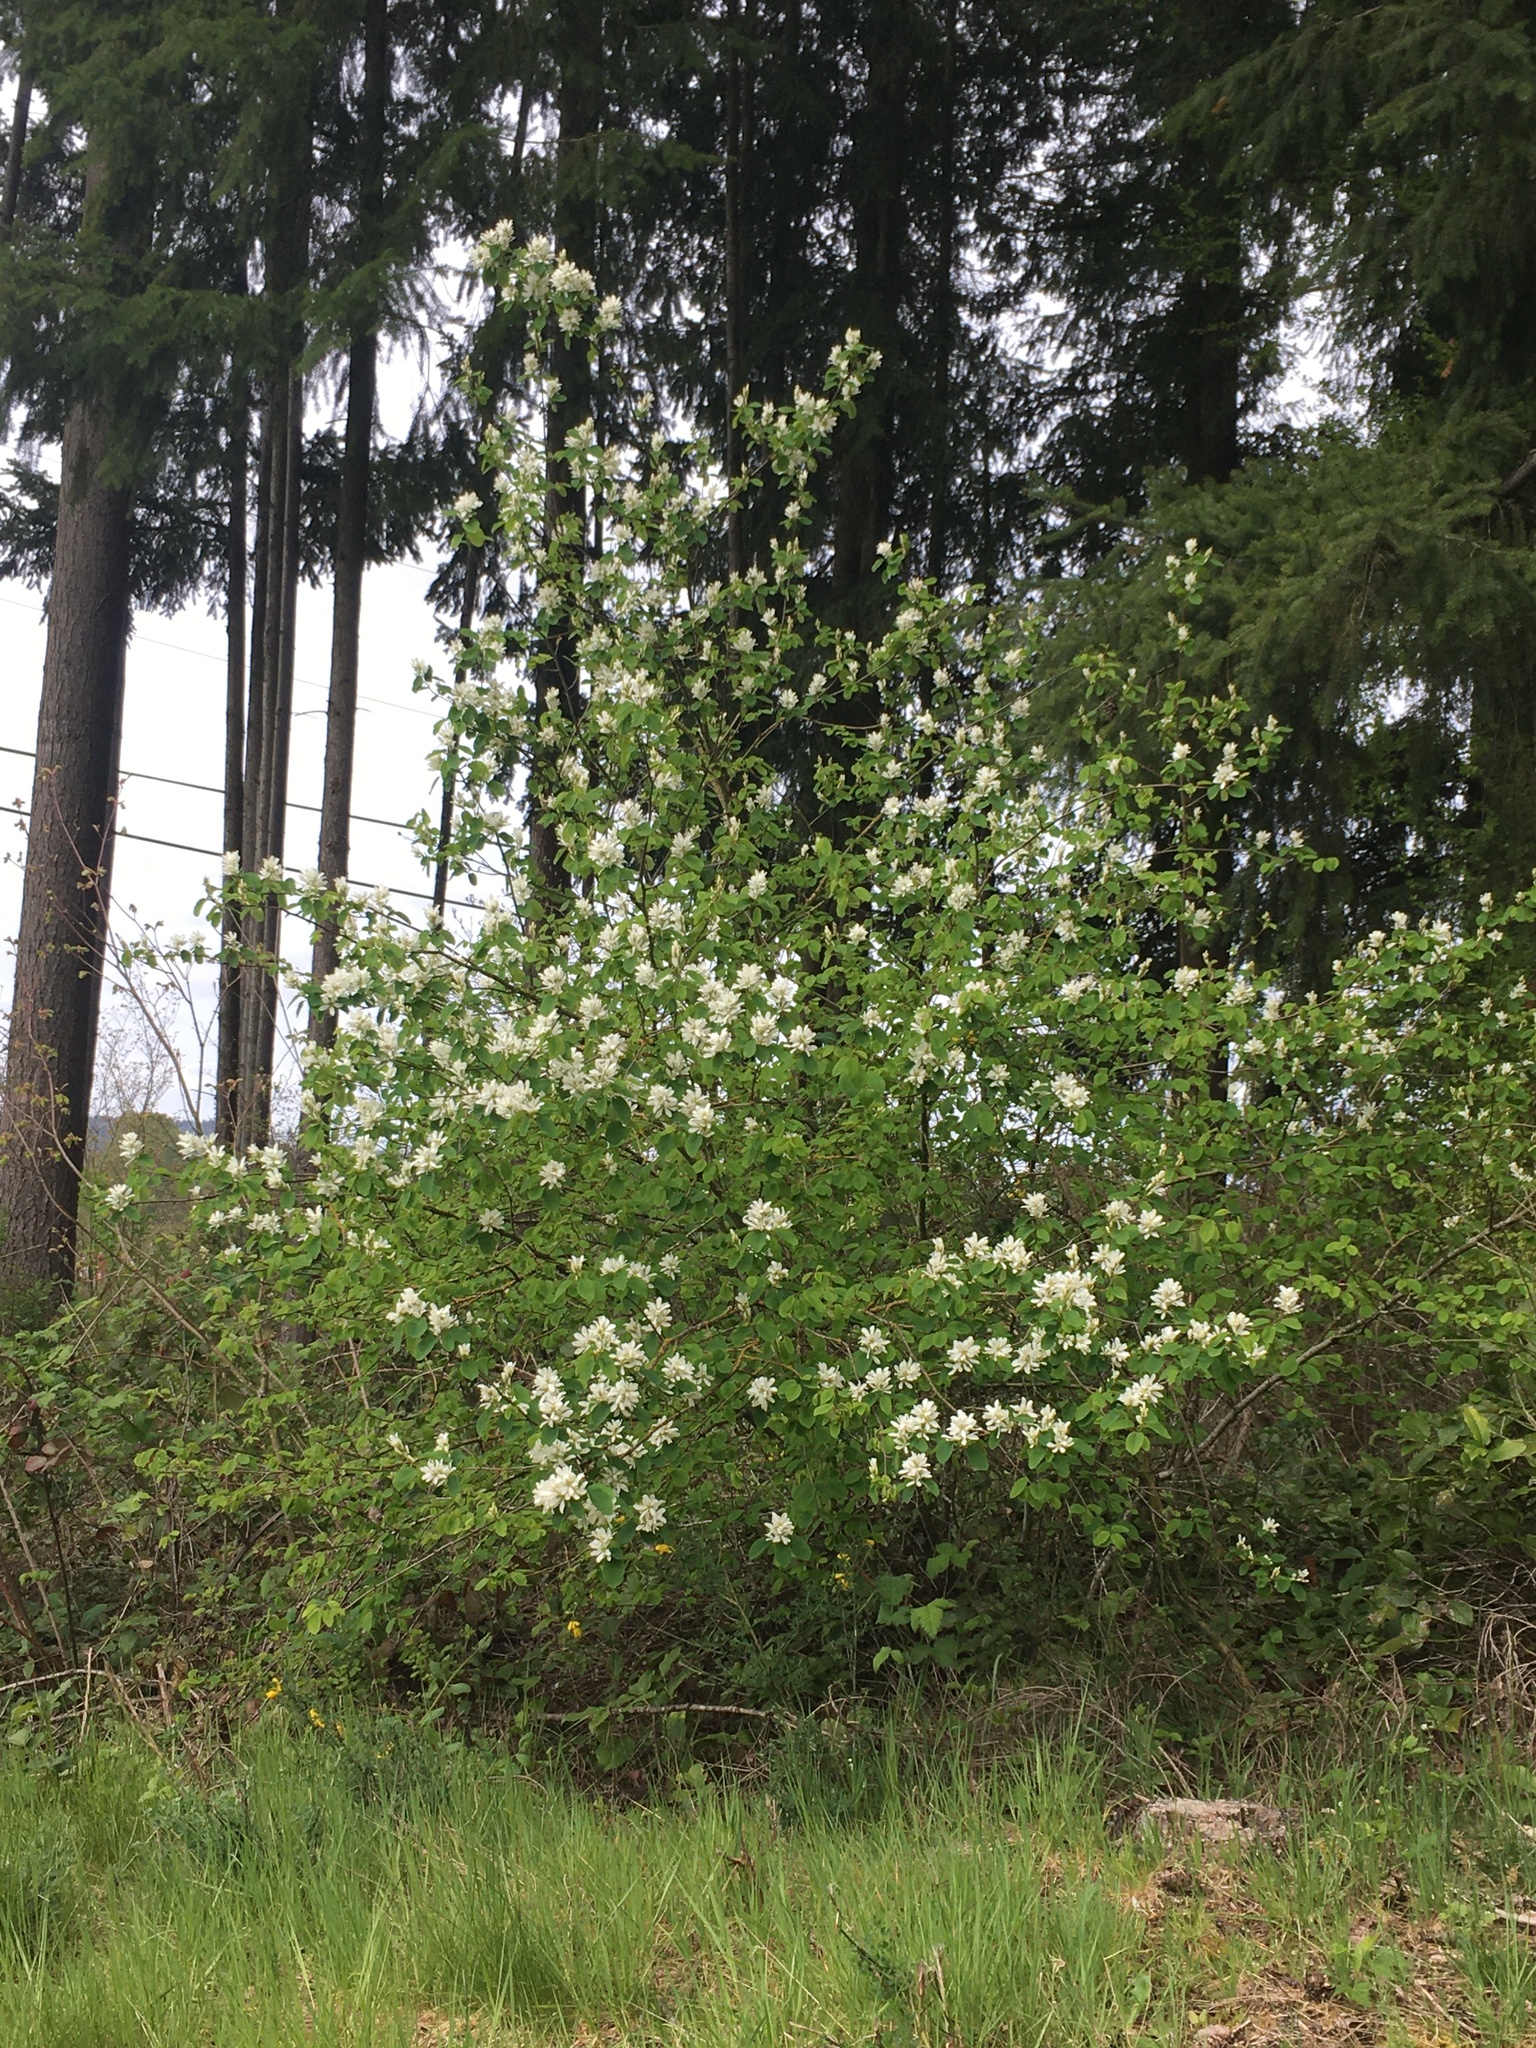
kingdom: Plantae
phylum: Tracheophyta
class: Magnoliopsida
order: Rosales
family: Rosaceae
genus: Amelanchier
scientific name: Amelanchier alnifolia
